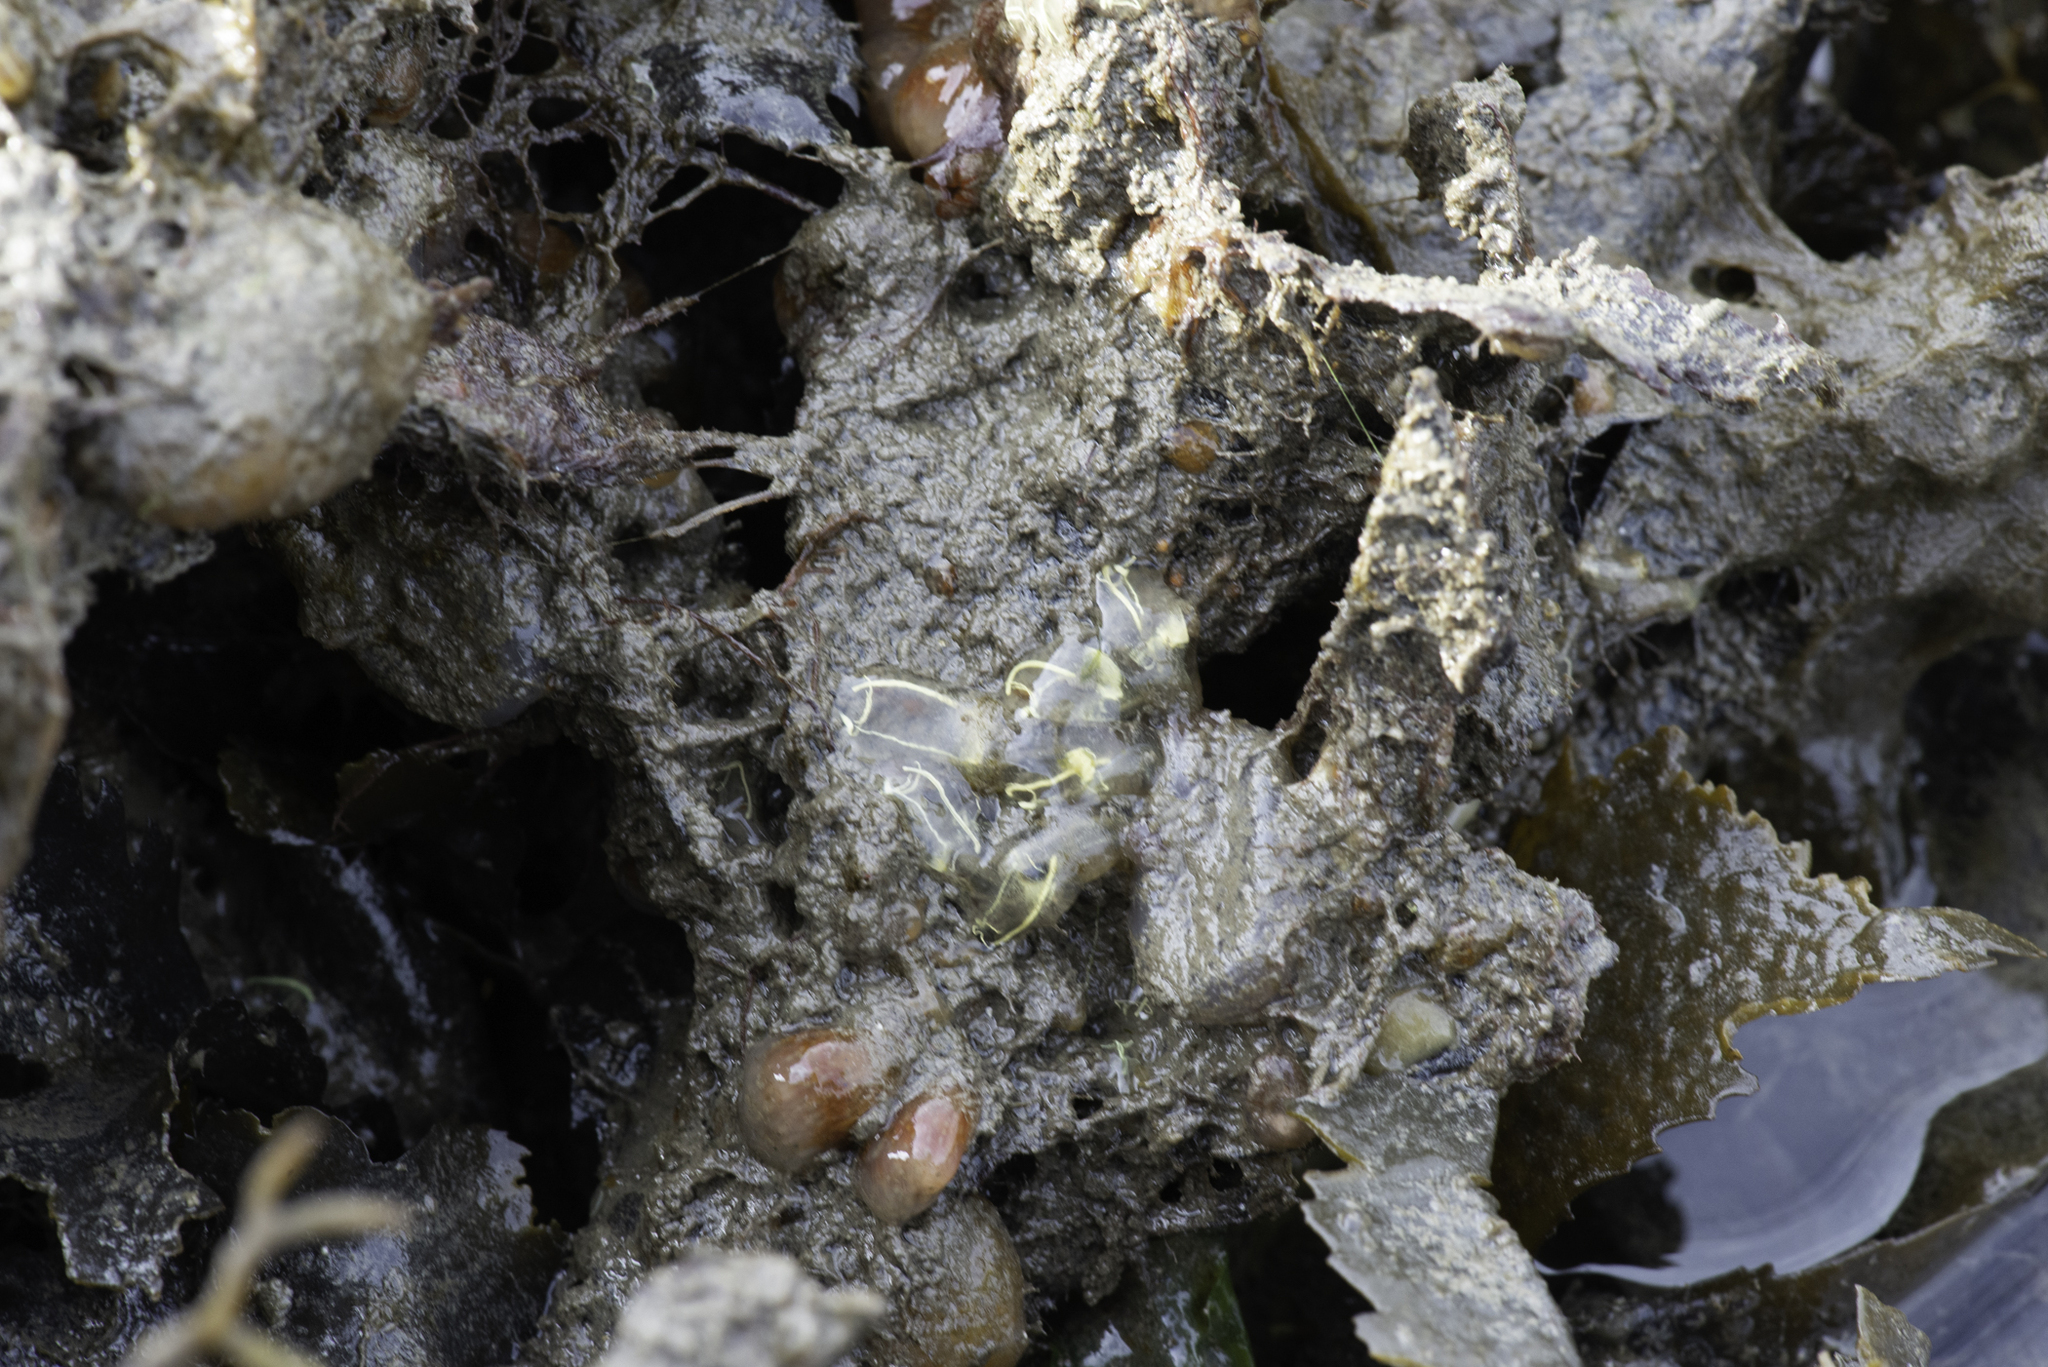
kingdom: Animalia
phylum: Chordata
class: Ascidiacea
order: Aplousobranchia
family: Clavelinidae
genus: Clavelina
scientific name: Clavelina lepadiformis
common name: Light bulb tunicate
